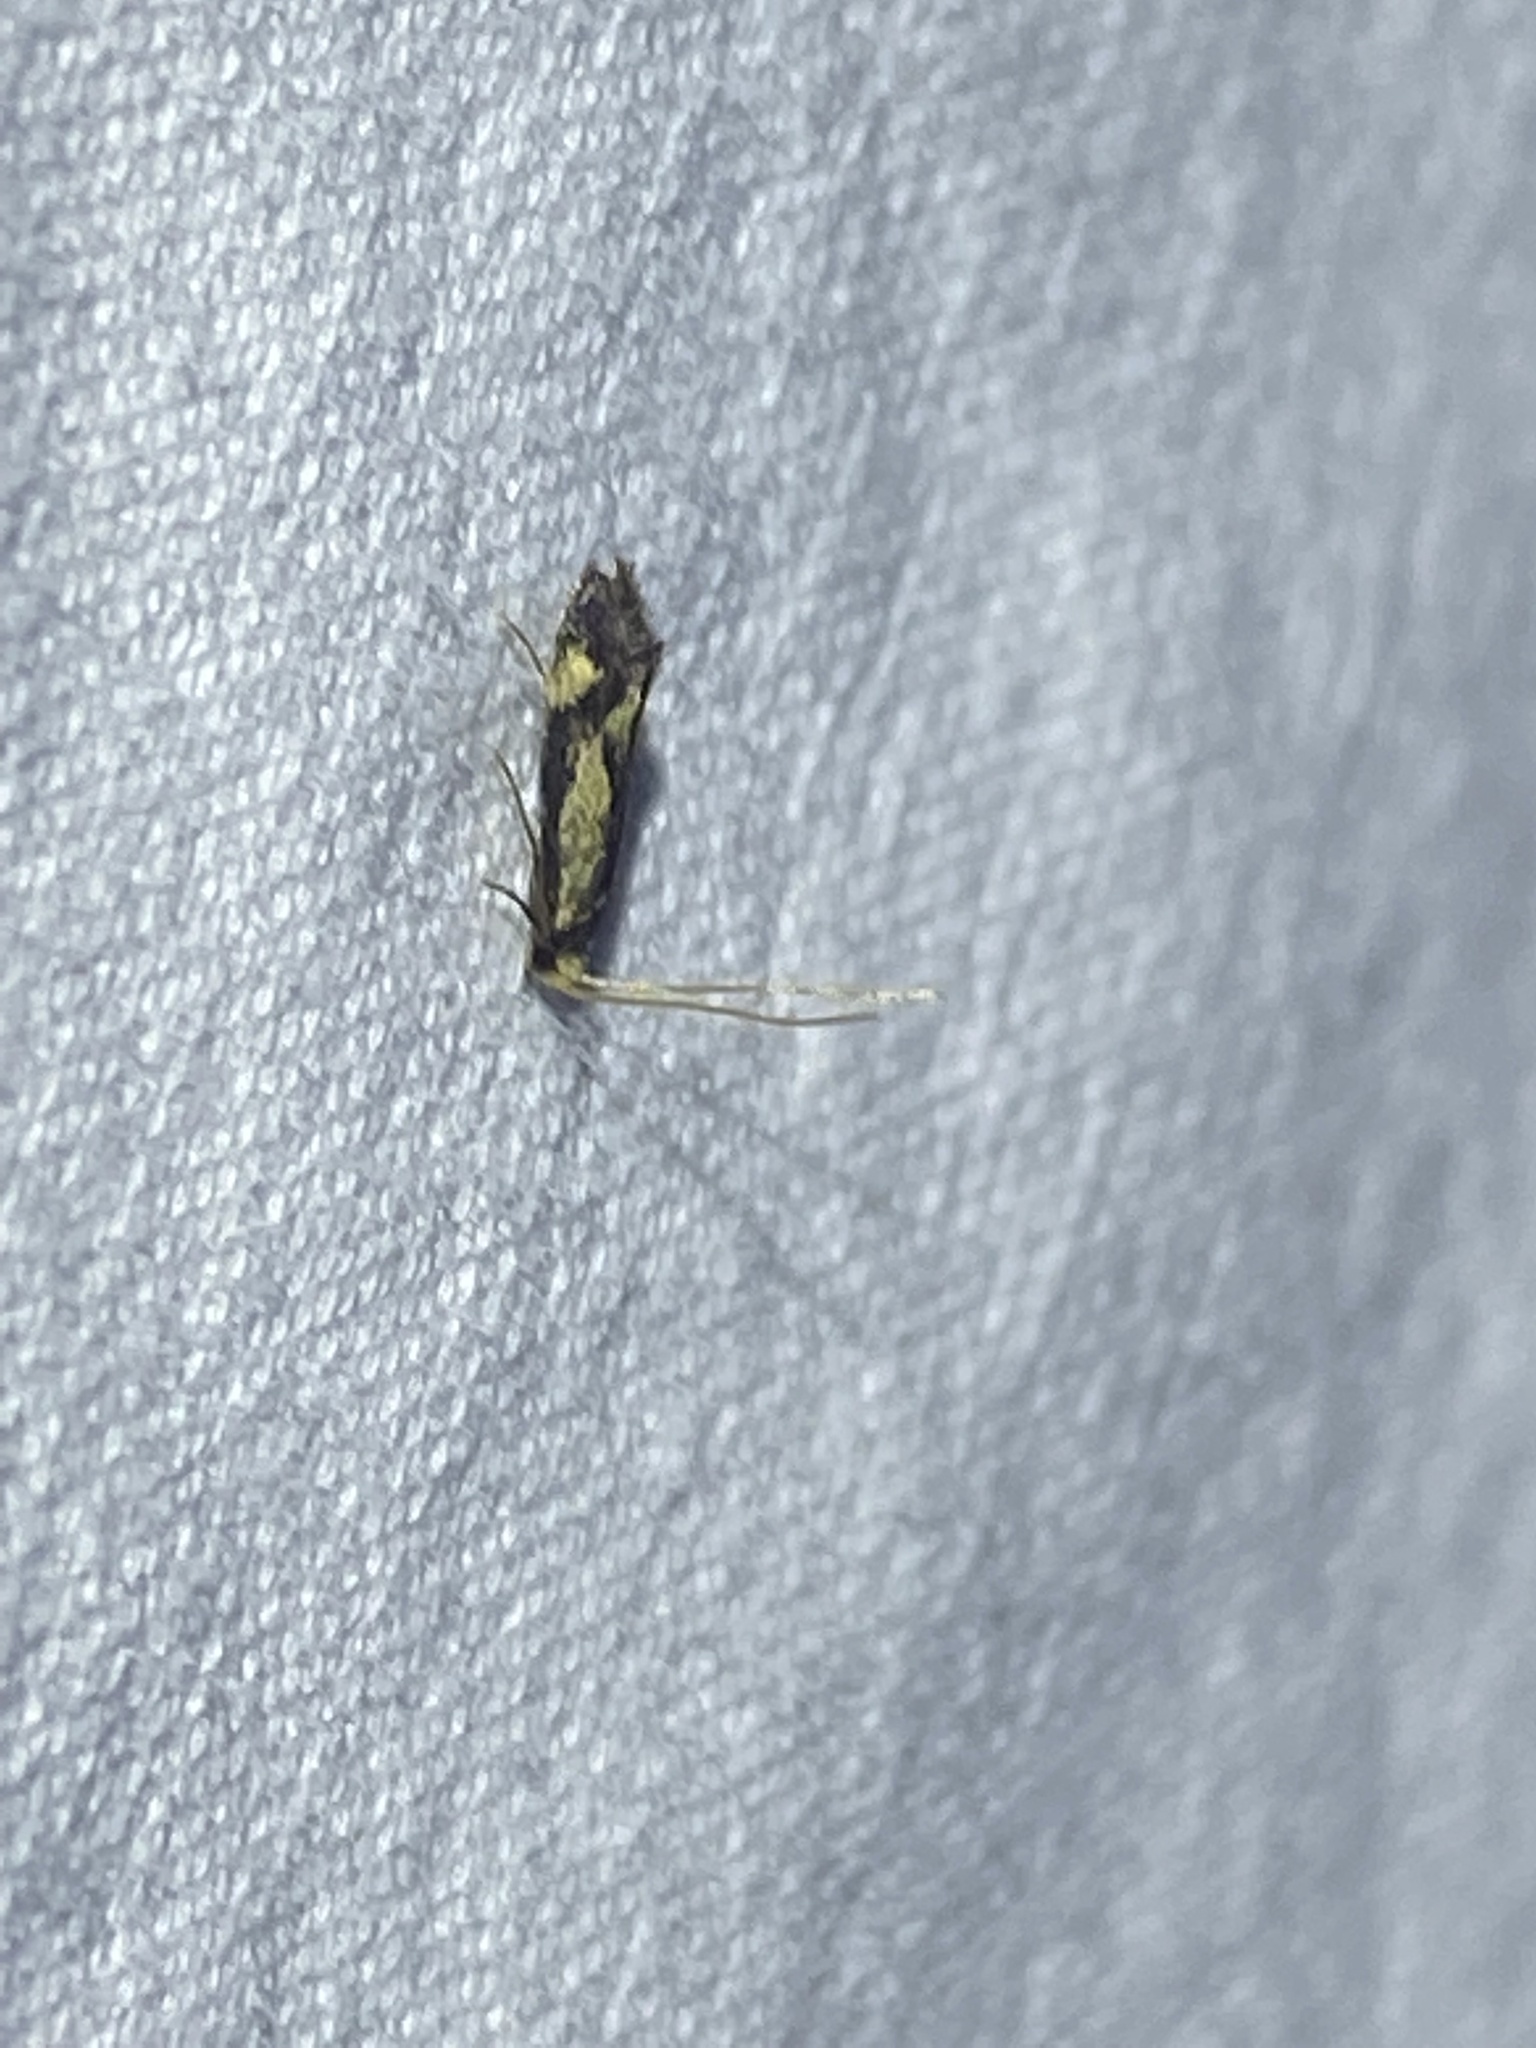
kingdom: Animalia
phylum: Arthropoda
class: Insecta
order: Lepidoptera
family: Meessiidae
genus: Isocorypha
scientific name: Isocorypha mediostriatella
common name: Old gold isocorypha moth
